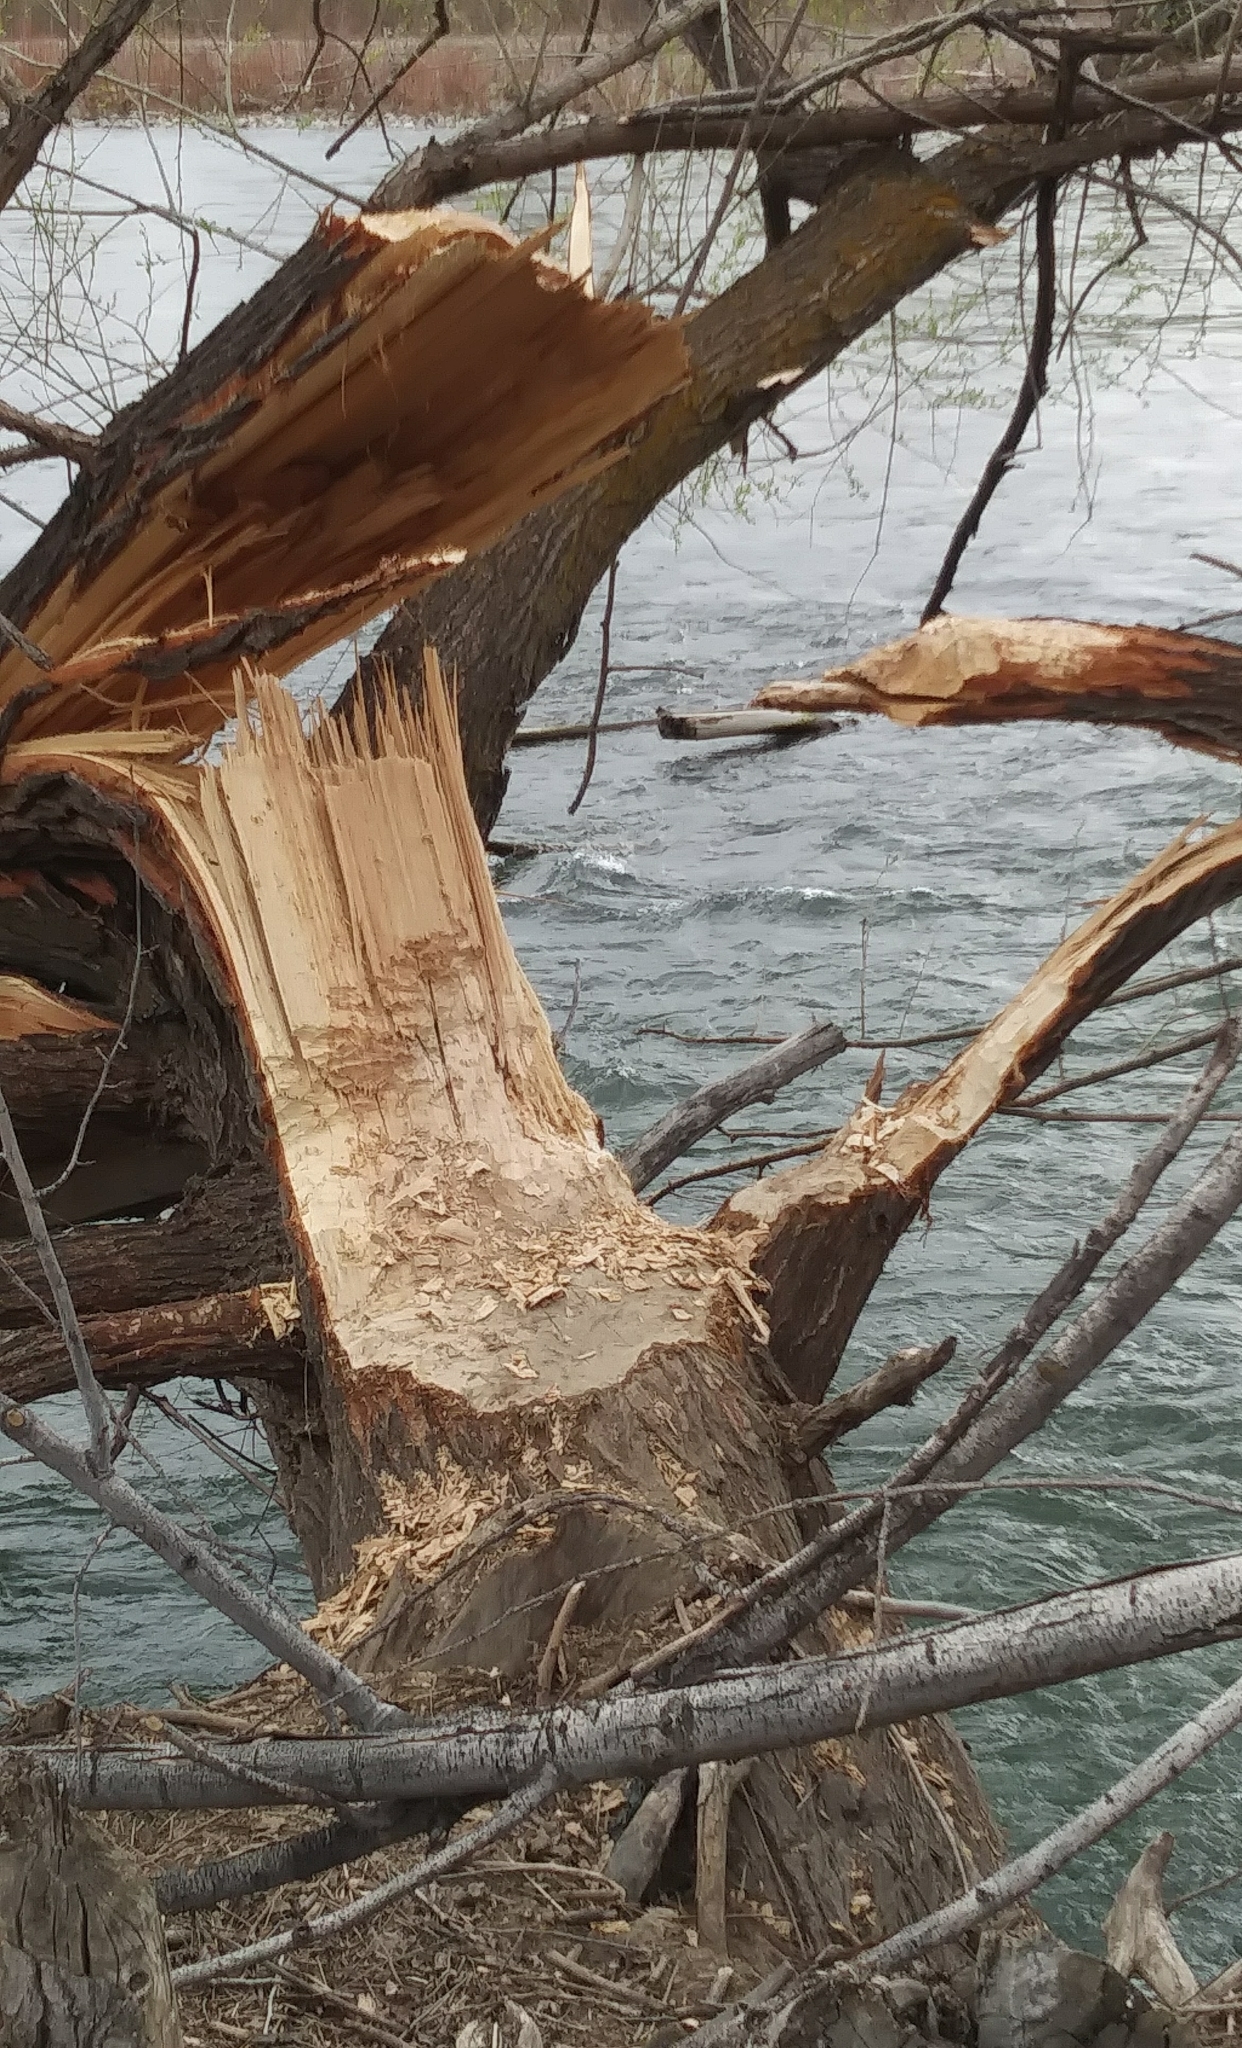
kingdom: Animalia
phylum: Chordata
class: Mammalia
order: Rodentia
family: Castoridae
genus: Castor
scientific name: Castor canadensis
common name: American beaver
